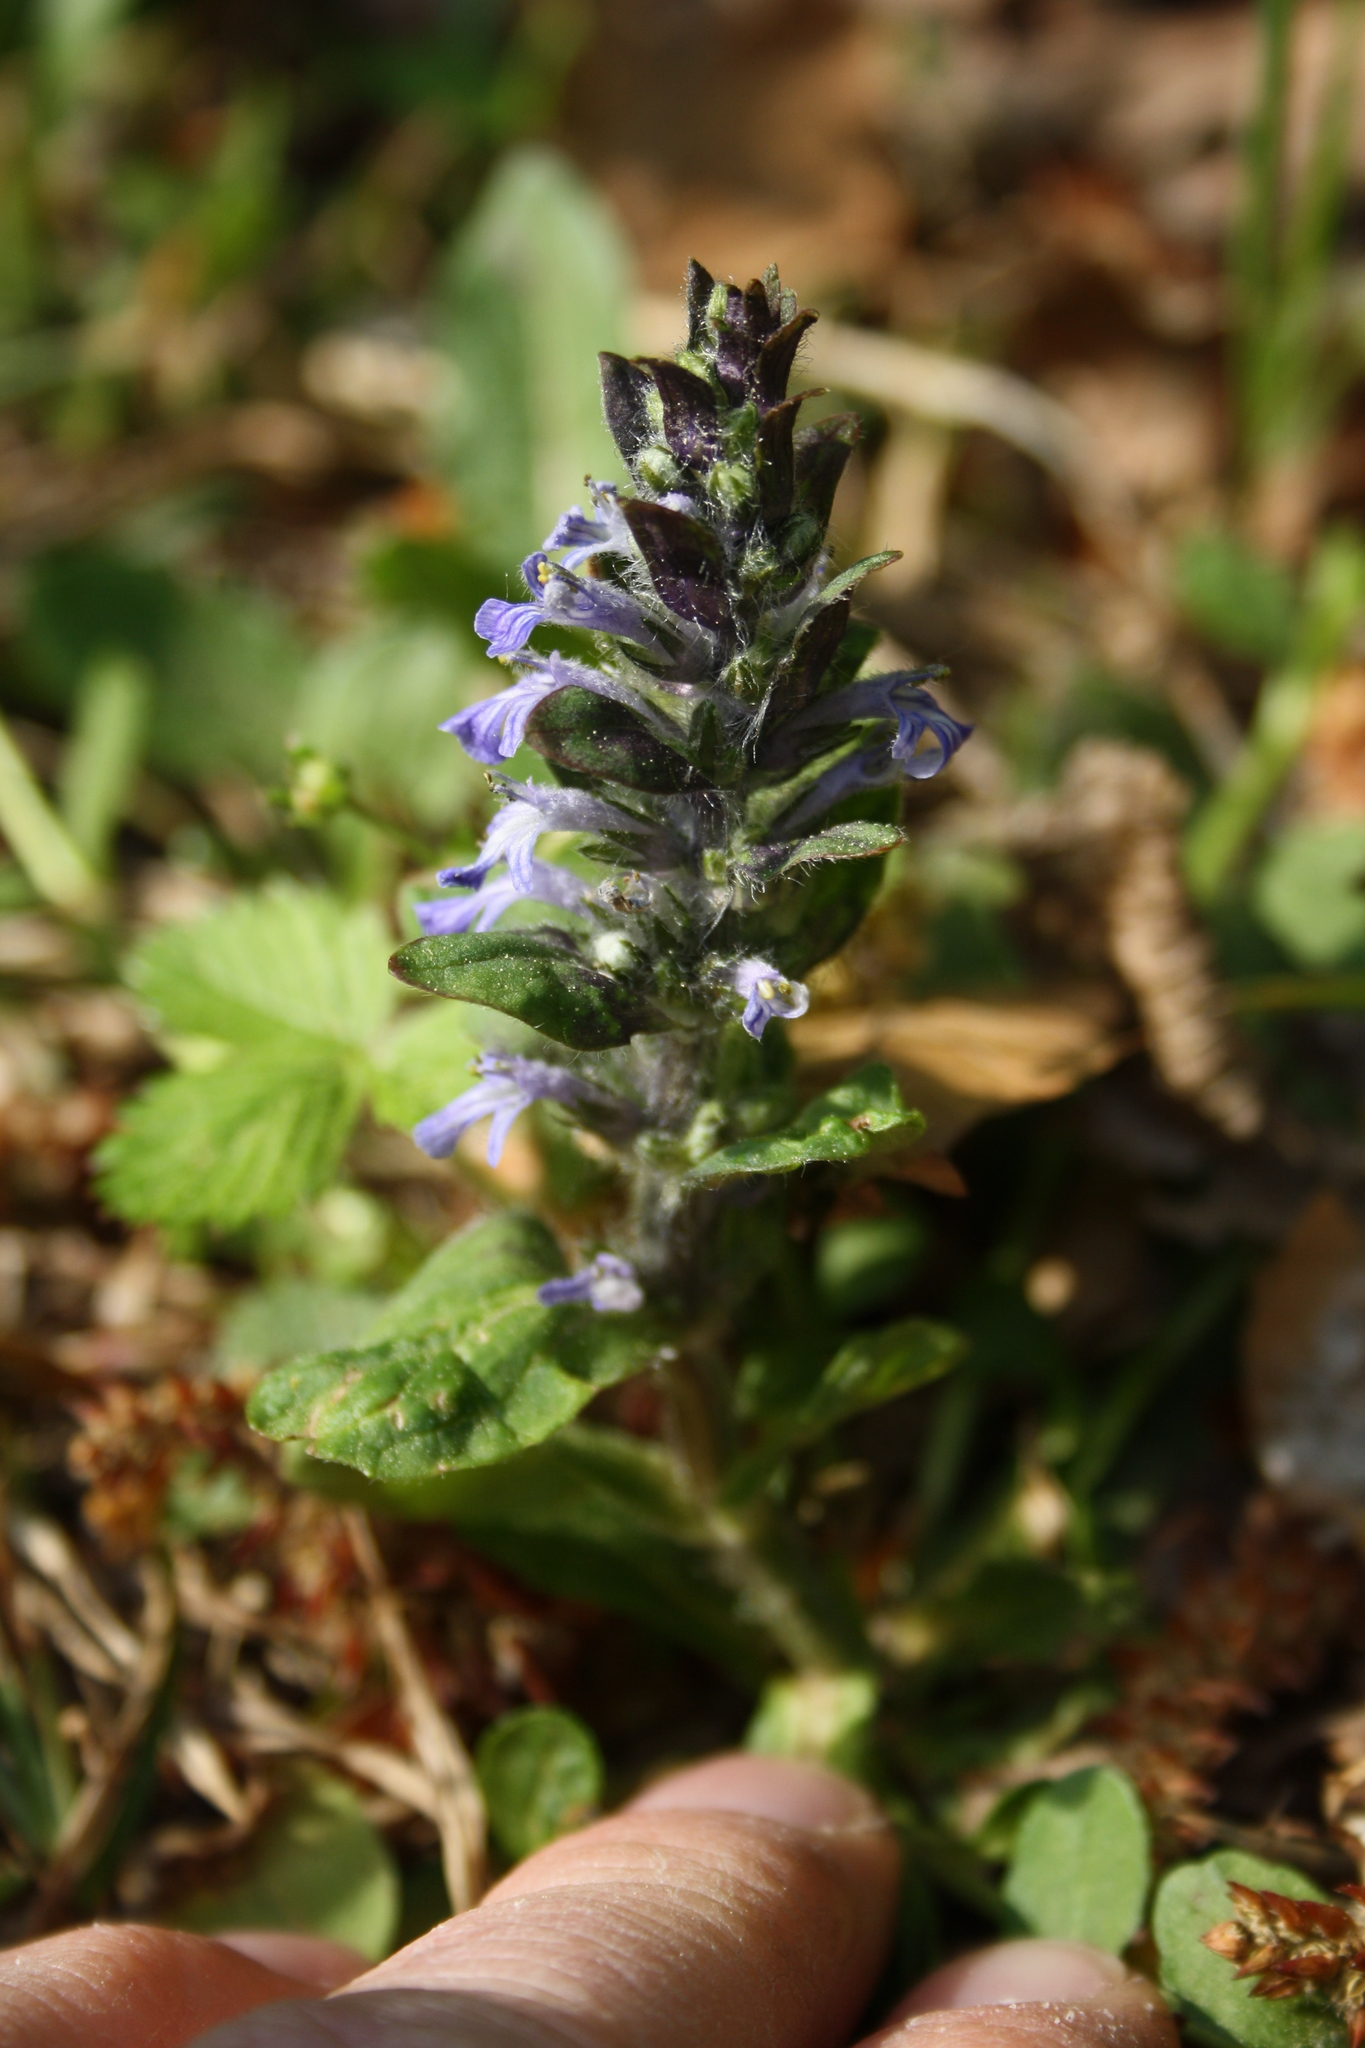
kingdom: Plantae
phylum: Tracheophyta
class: Magnoliopsida
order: Lamiales
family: Lamiaceae
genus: Ajuga
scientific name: Ajuga reptans
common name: Bugle
